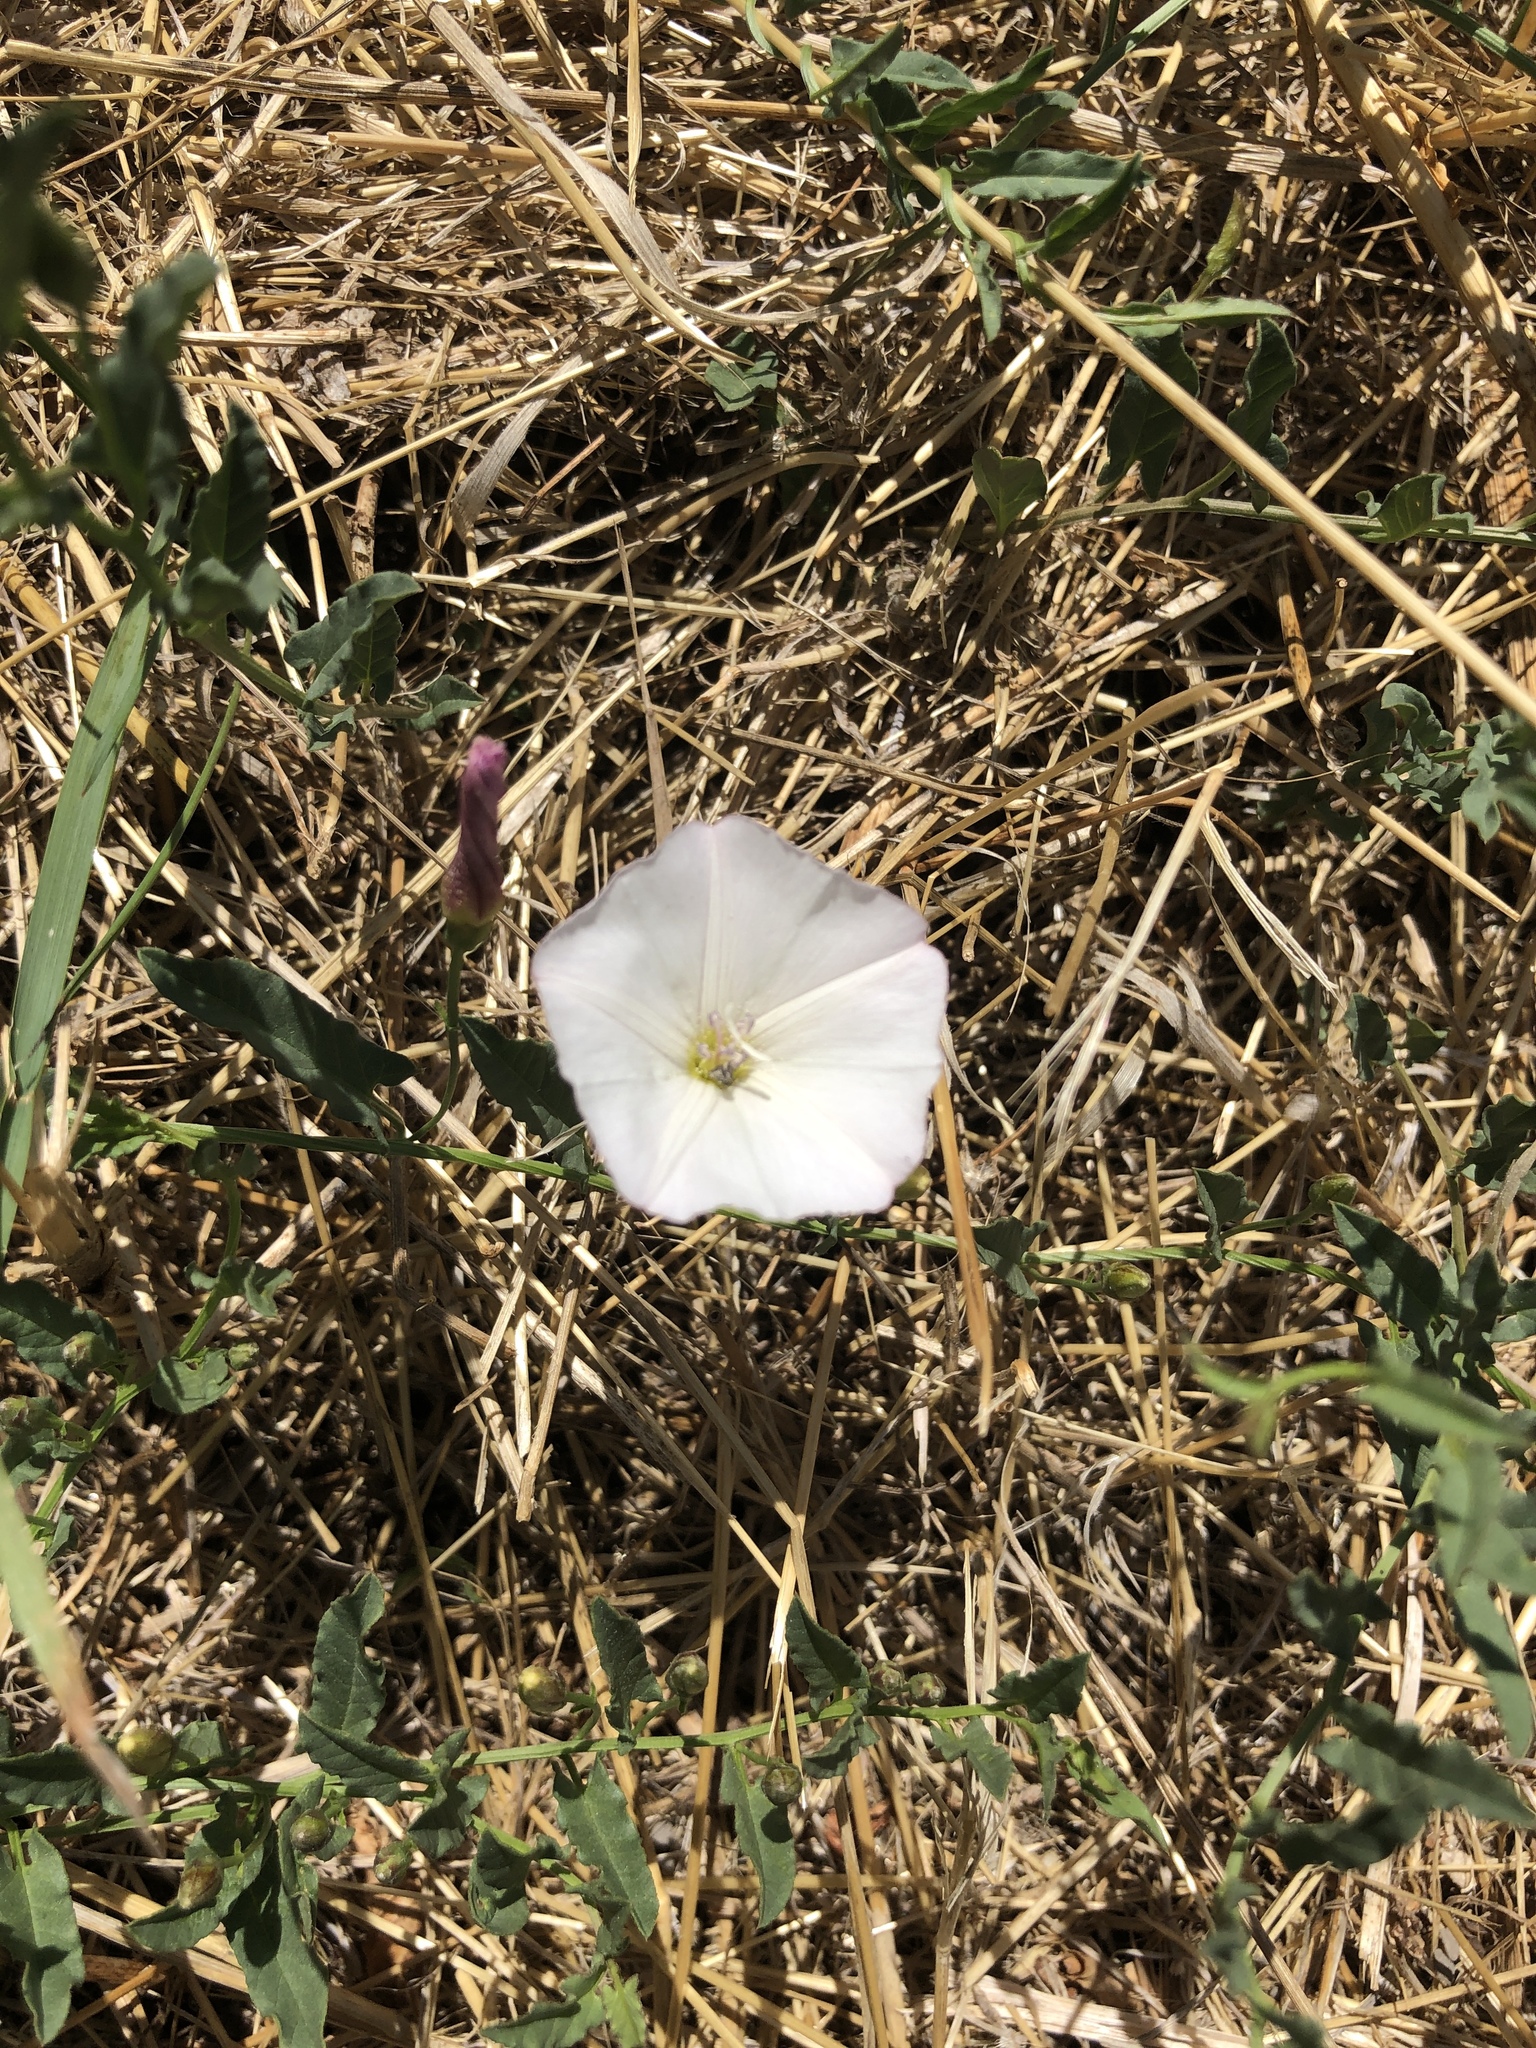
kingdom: Plantae
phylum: Tracheophyta
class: Magnoliopsida
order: Solanales
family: Convolvulaceae
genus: Convolvulus
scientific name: Convolvulus arvensis
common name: Field bindweed
